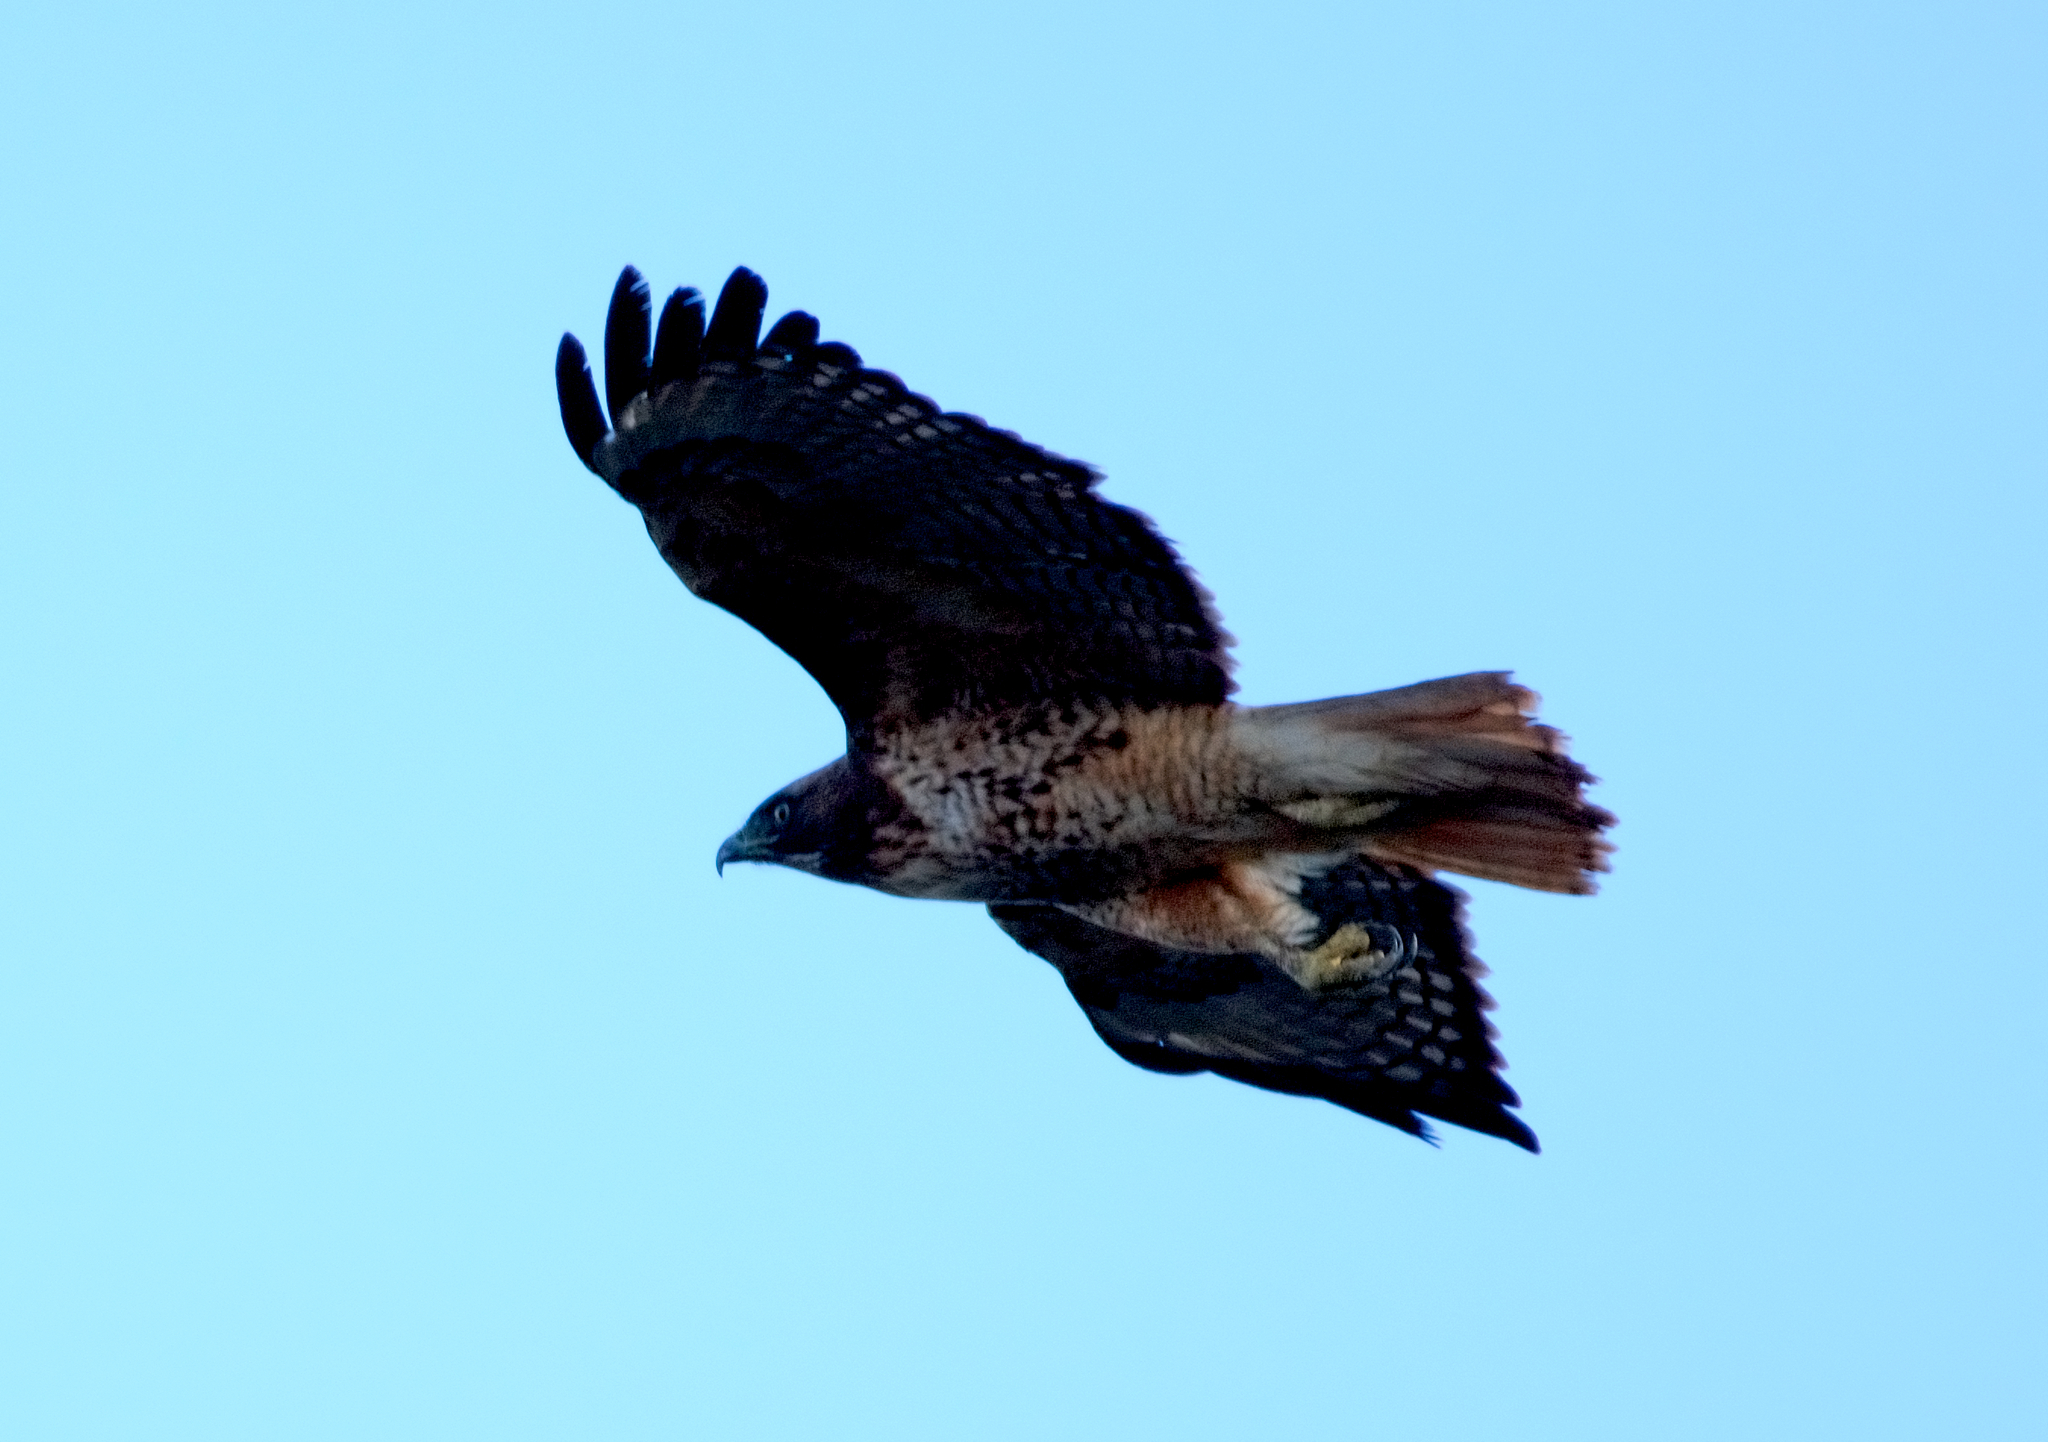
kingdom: Animalia
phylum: Chordata
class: Aves
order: Accipitriformes
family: Accipitridae
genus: Buteo
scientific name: Buteo jamaicensis
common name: Red-tailed hawk
